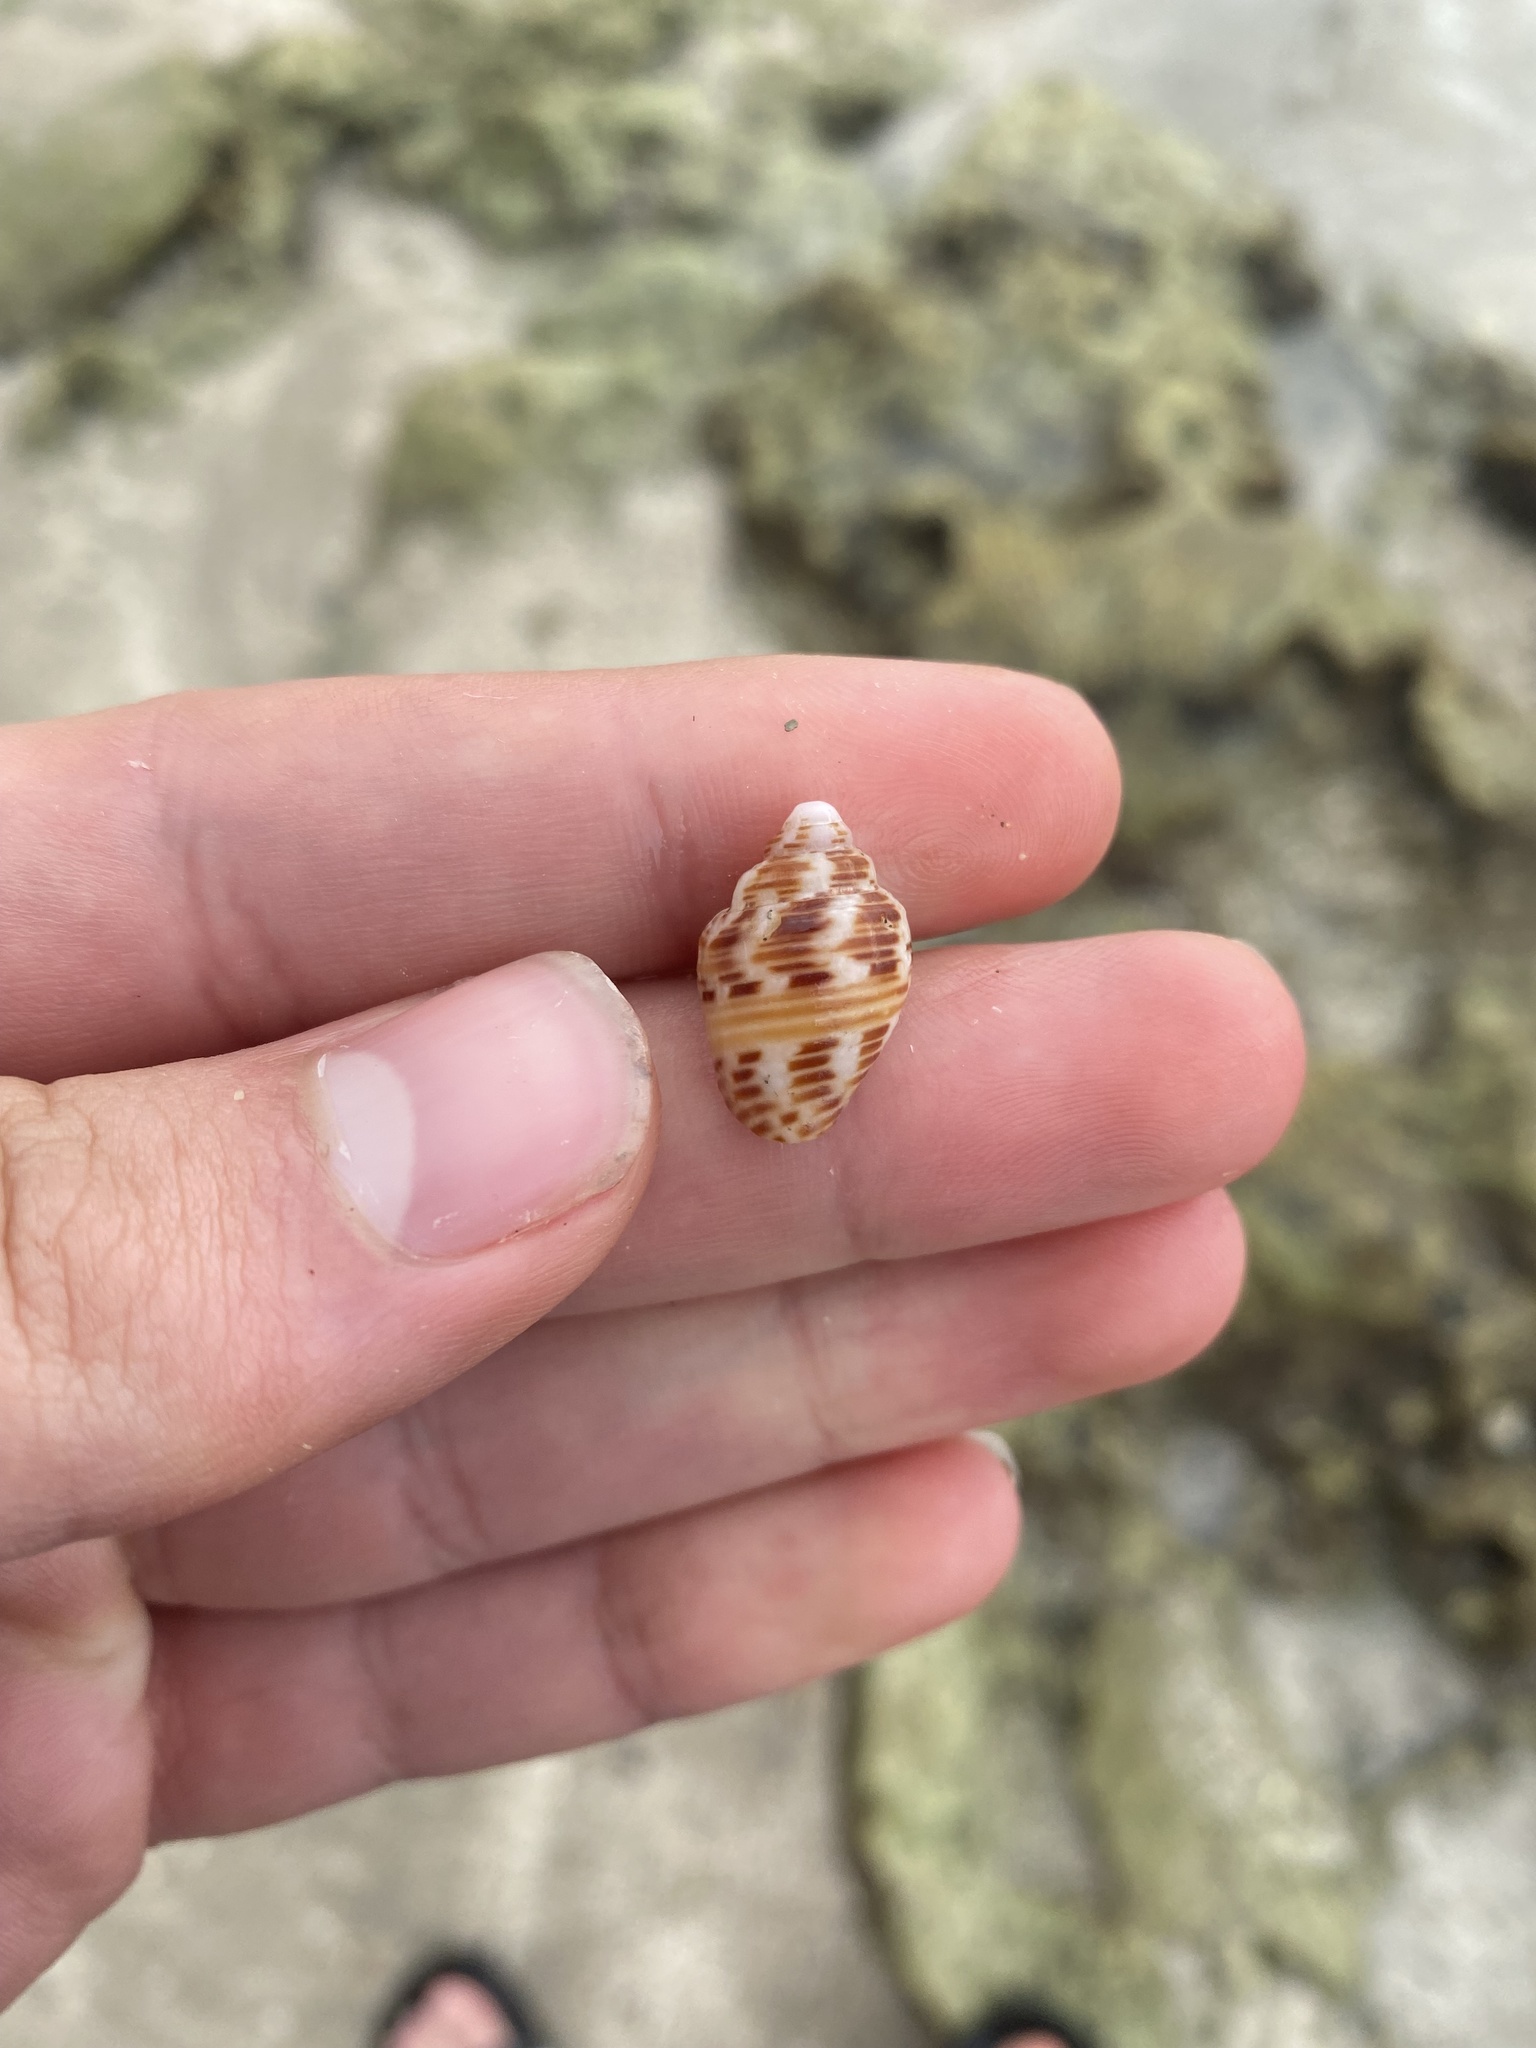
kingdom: Animalia
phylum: Mollusca
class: Gastropoda
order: Neogastropoda
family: Columbellidae
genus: Columbella
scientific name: Columbella mercatoria
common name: West indian dovesnail
